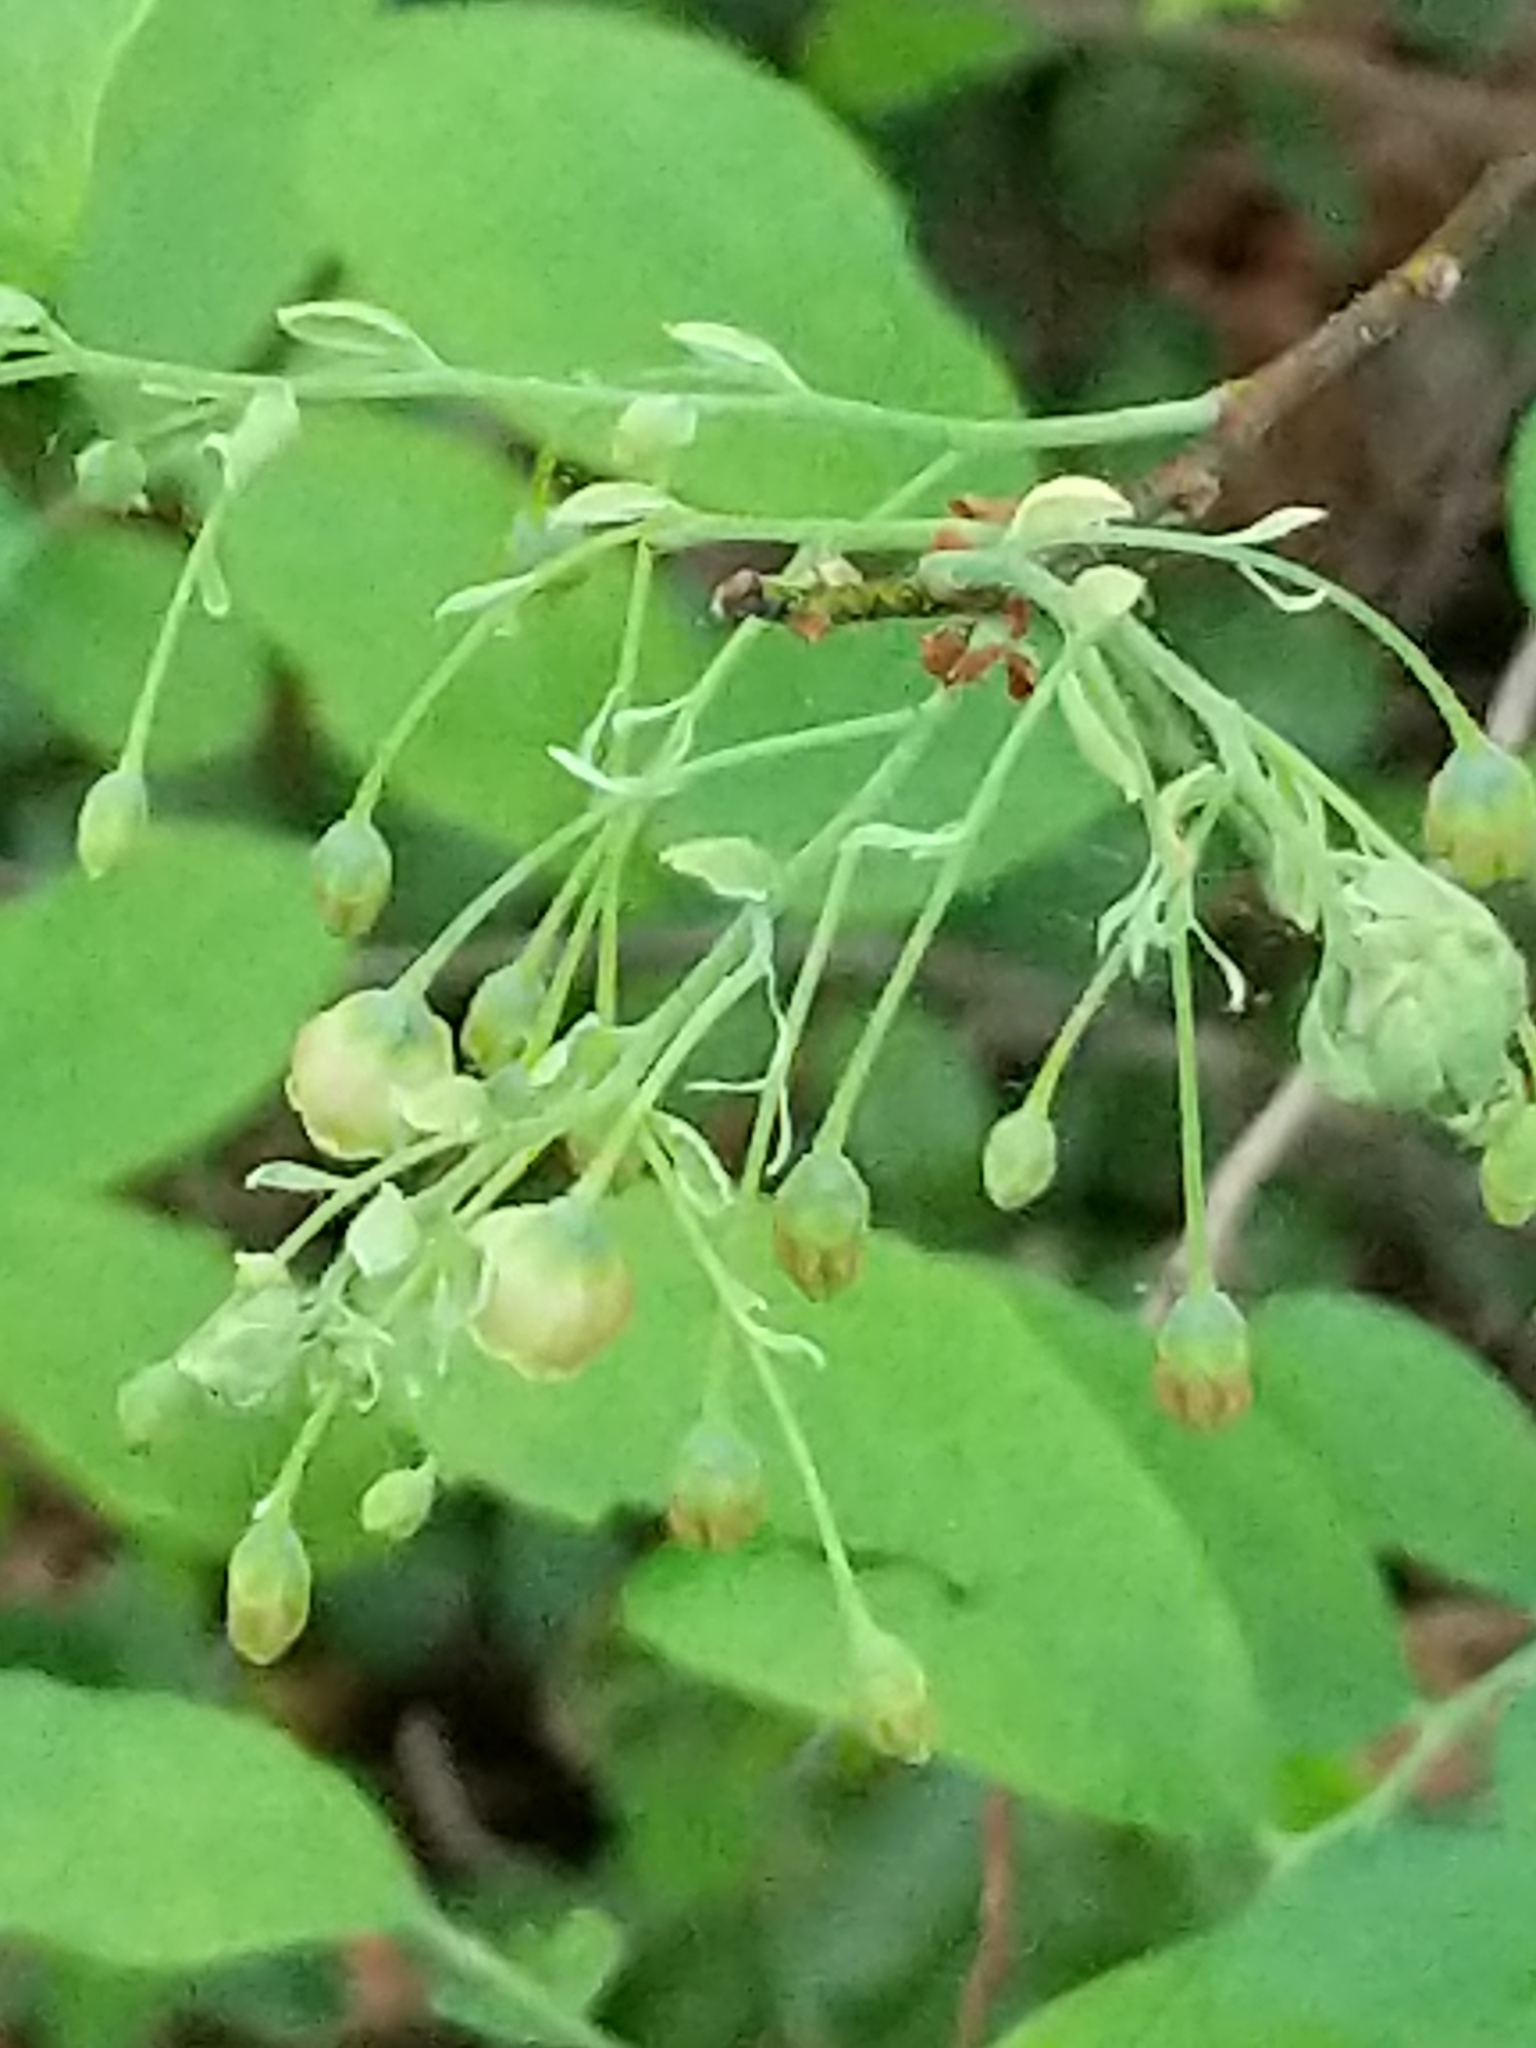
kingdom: Plantae
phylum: Tracheophyta
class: Magnoliopsida
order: Ericales
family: Ericaceae
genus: Gaylussacia
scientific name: Gaylussacia frondosa
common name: Dangleberry
